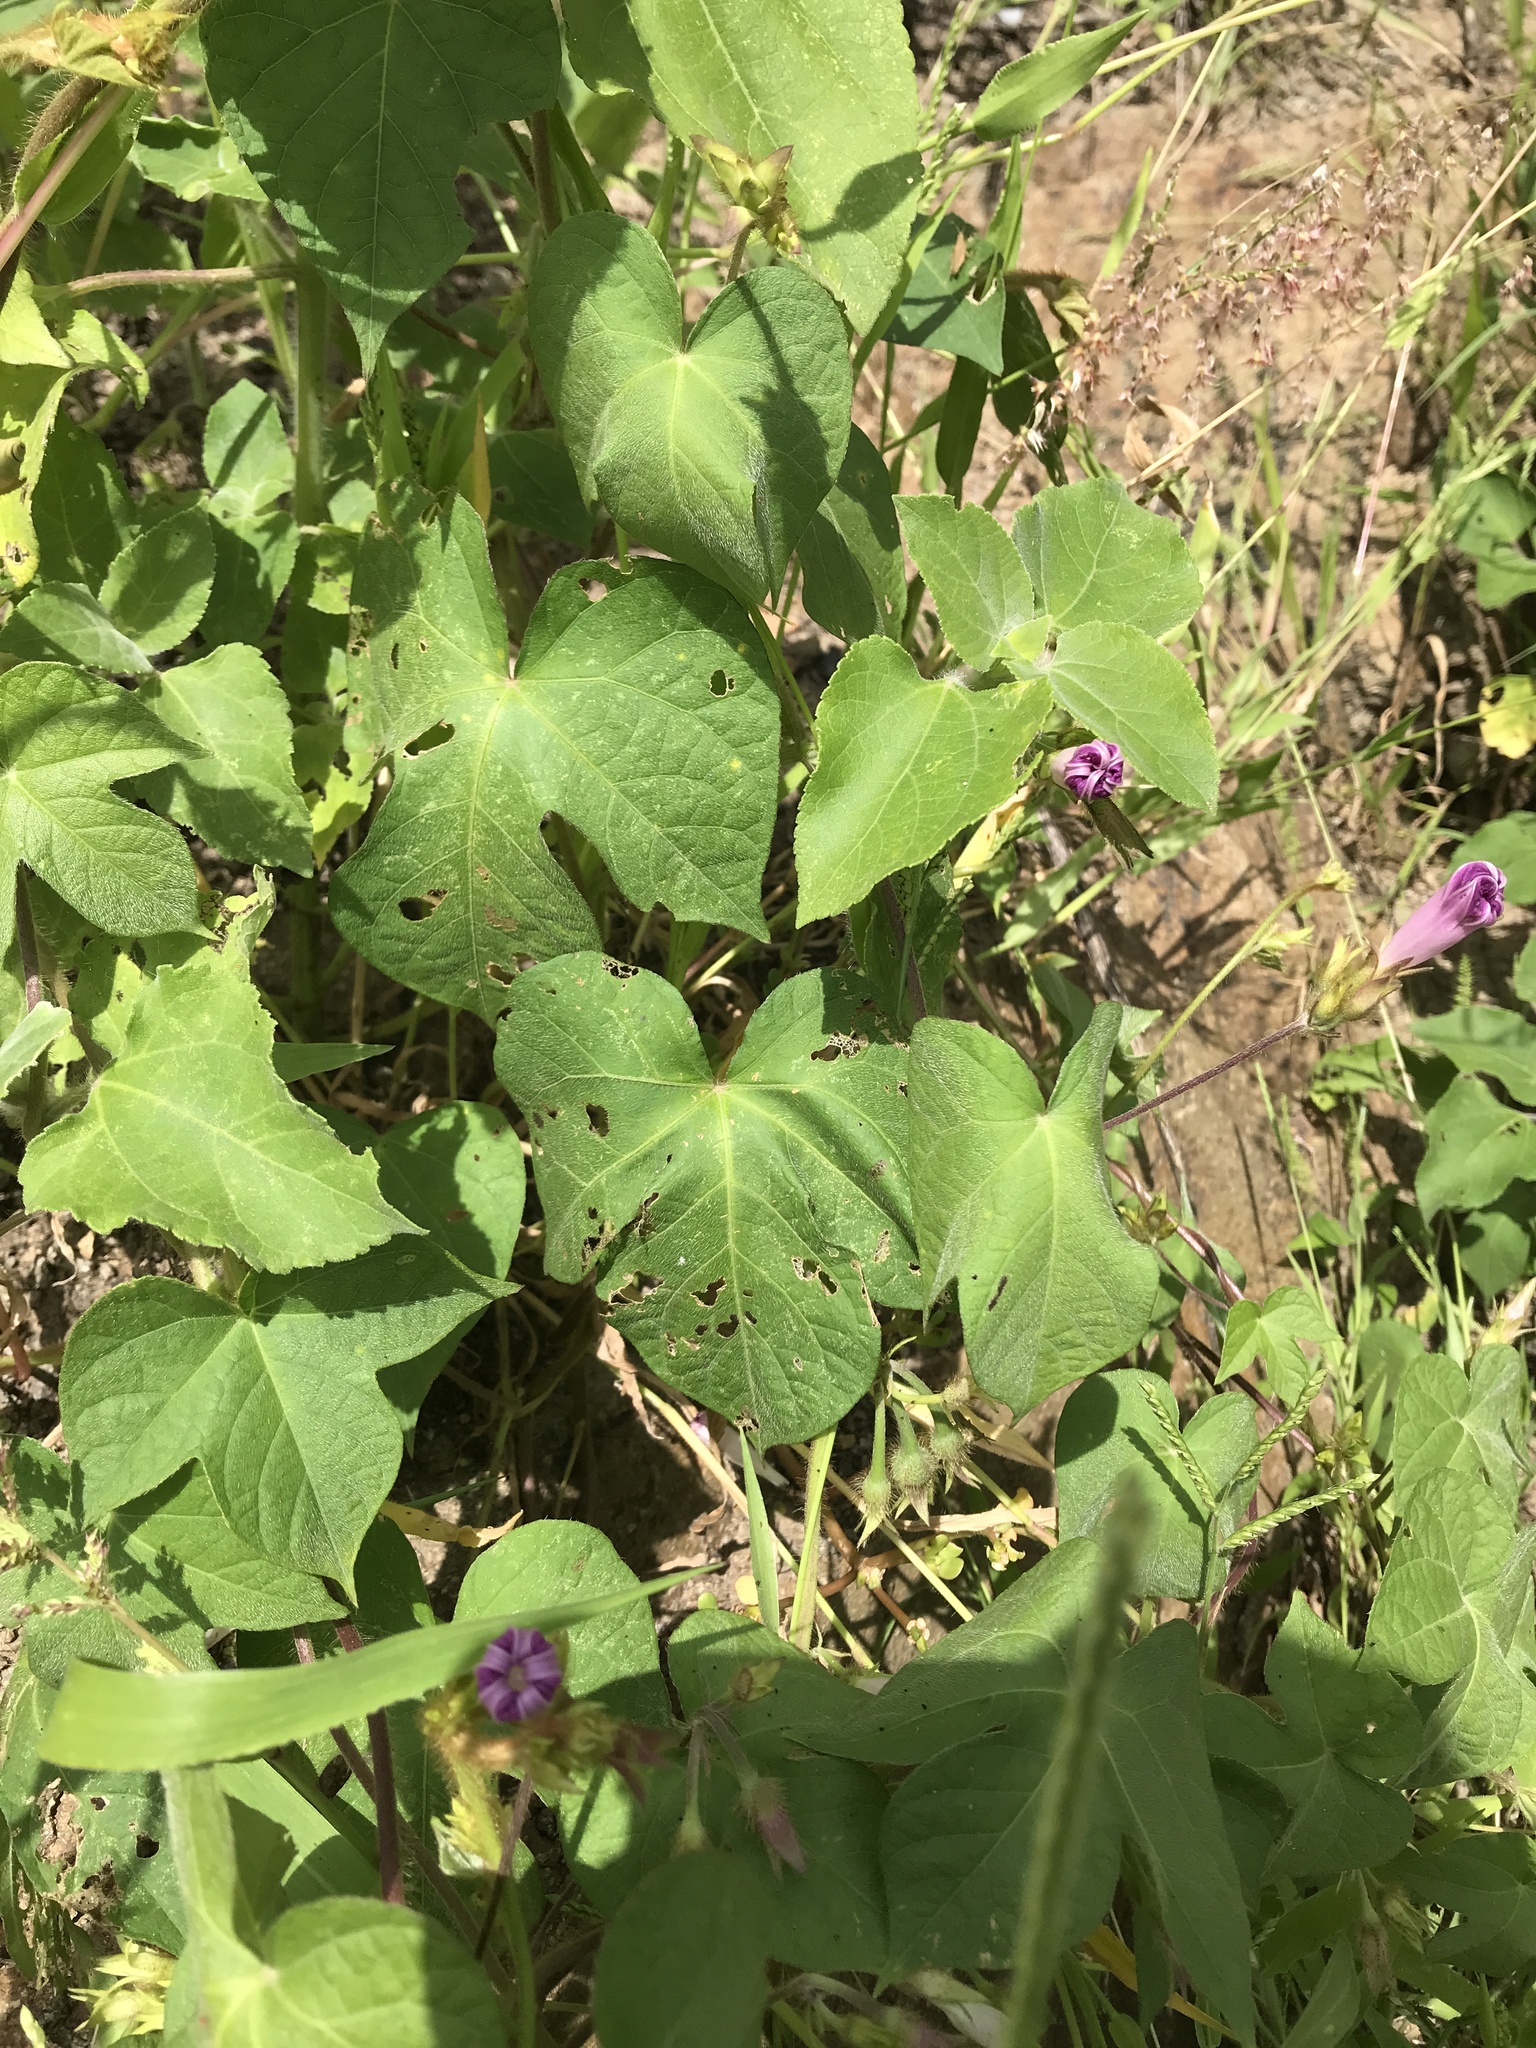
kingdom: Plantae
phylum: Tracheophyta
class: Magnoliopsida
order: Solanales
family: Convolvulaceae
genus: Ipomoea
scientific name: Ipomoea purpurea
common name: Common morning-glory
